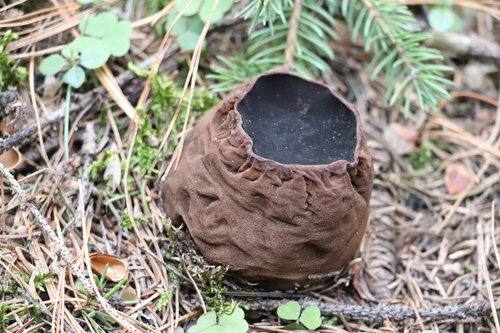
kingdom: Fungi
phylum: Ascomycota
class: Pezizomycetes
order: Pezizales
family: Sarcosomataceae
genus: Sarcosoma
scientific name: Sarcosoma globosum
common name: Charred-pancake cup
